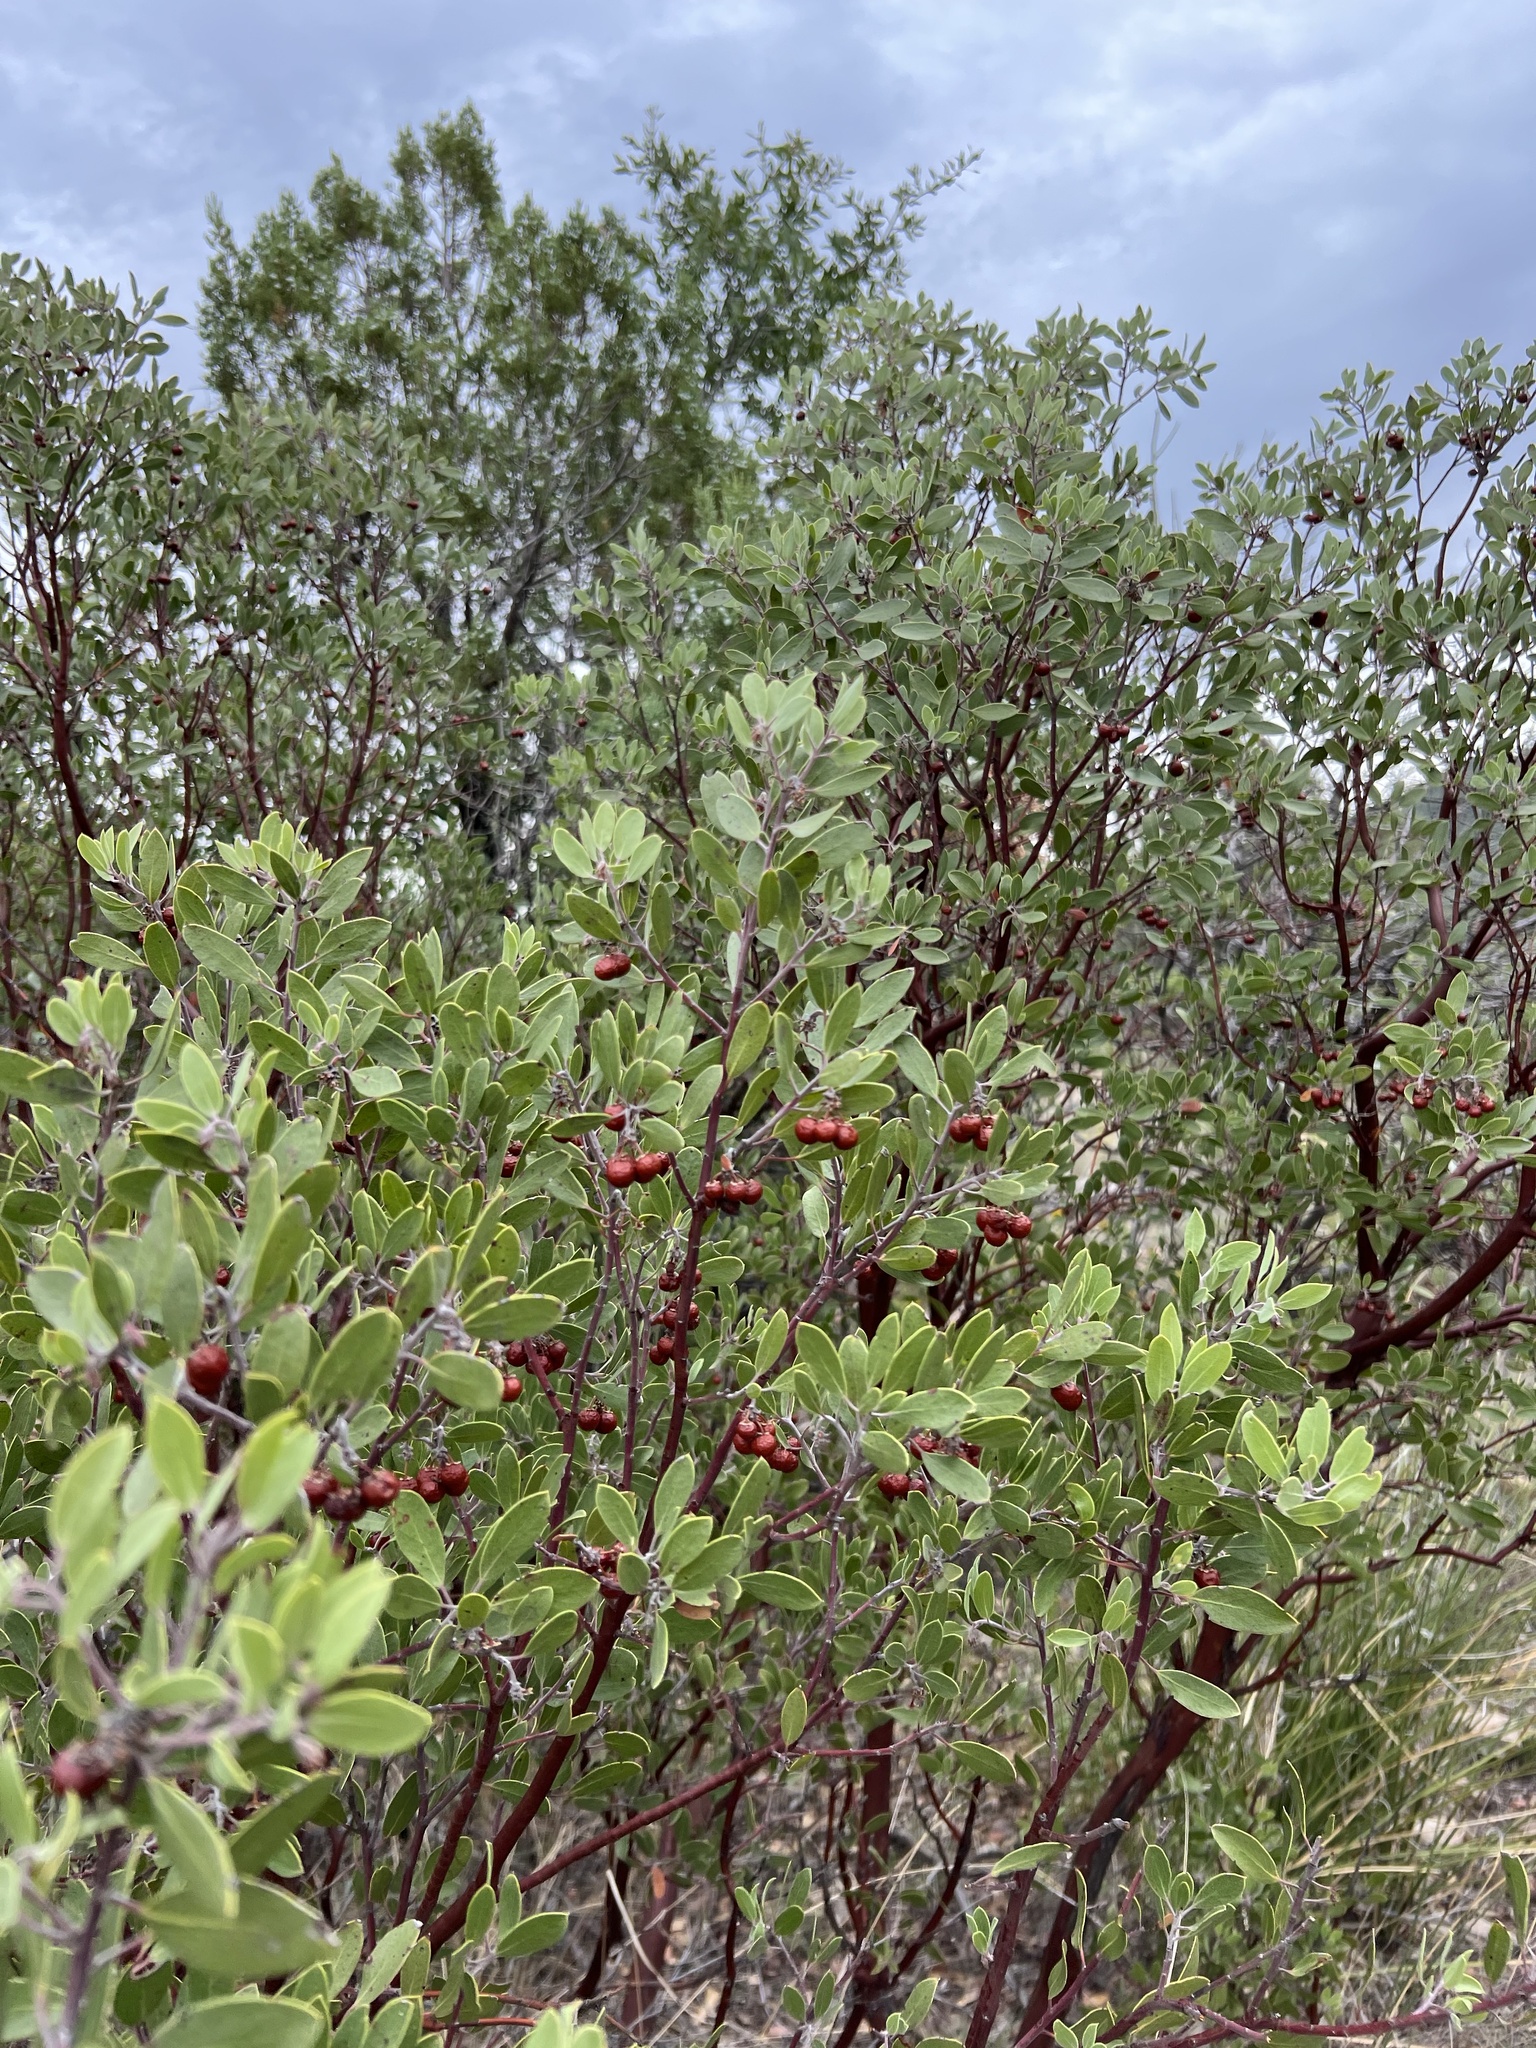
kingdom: Plantae
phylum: Tracheophyta
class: Magnoliopsida
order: Ericales
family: Ericaceae
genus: Arctostaphylos
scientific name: Arctostaphylos pungens
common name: Mexican manzanita
